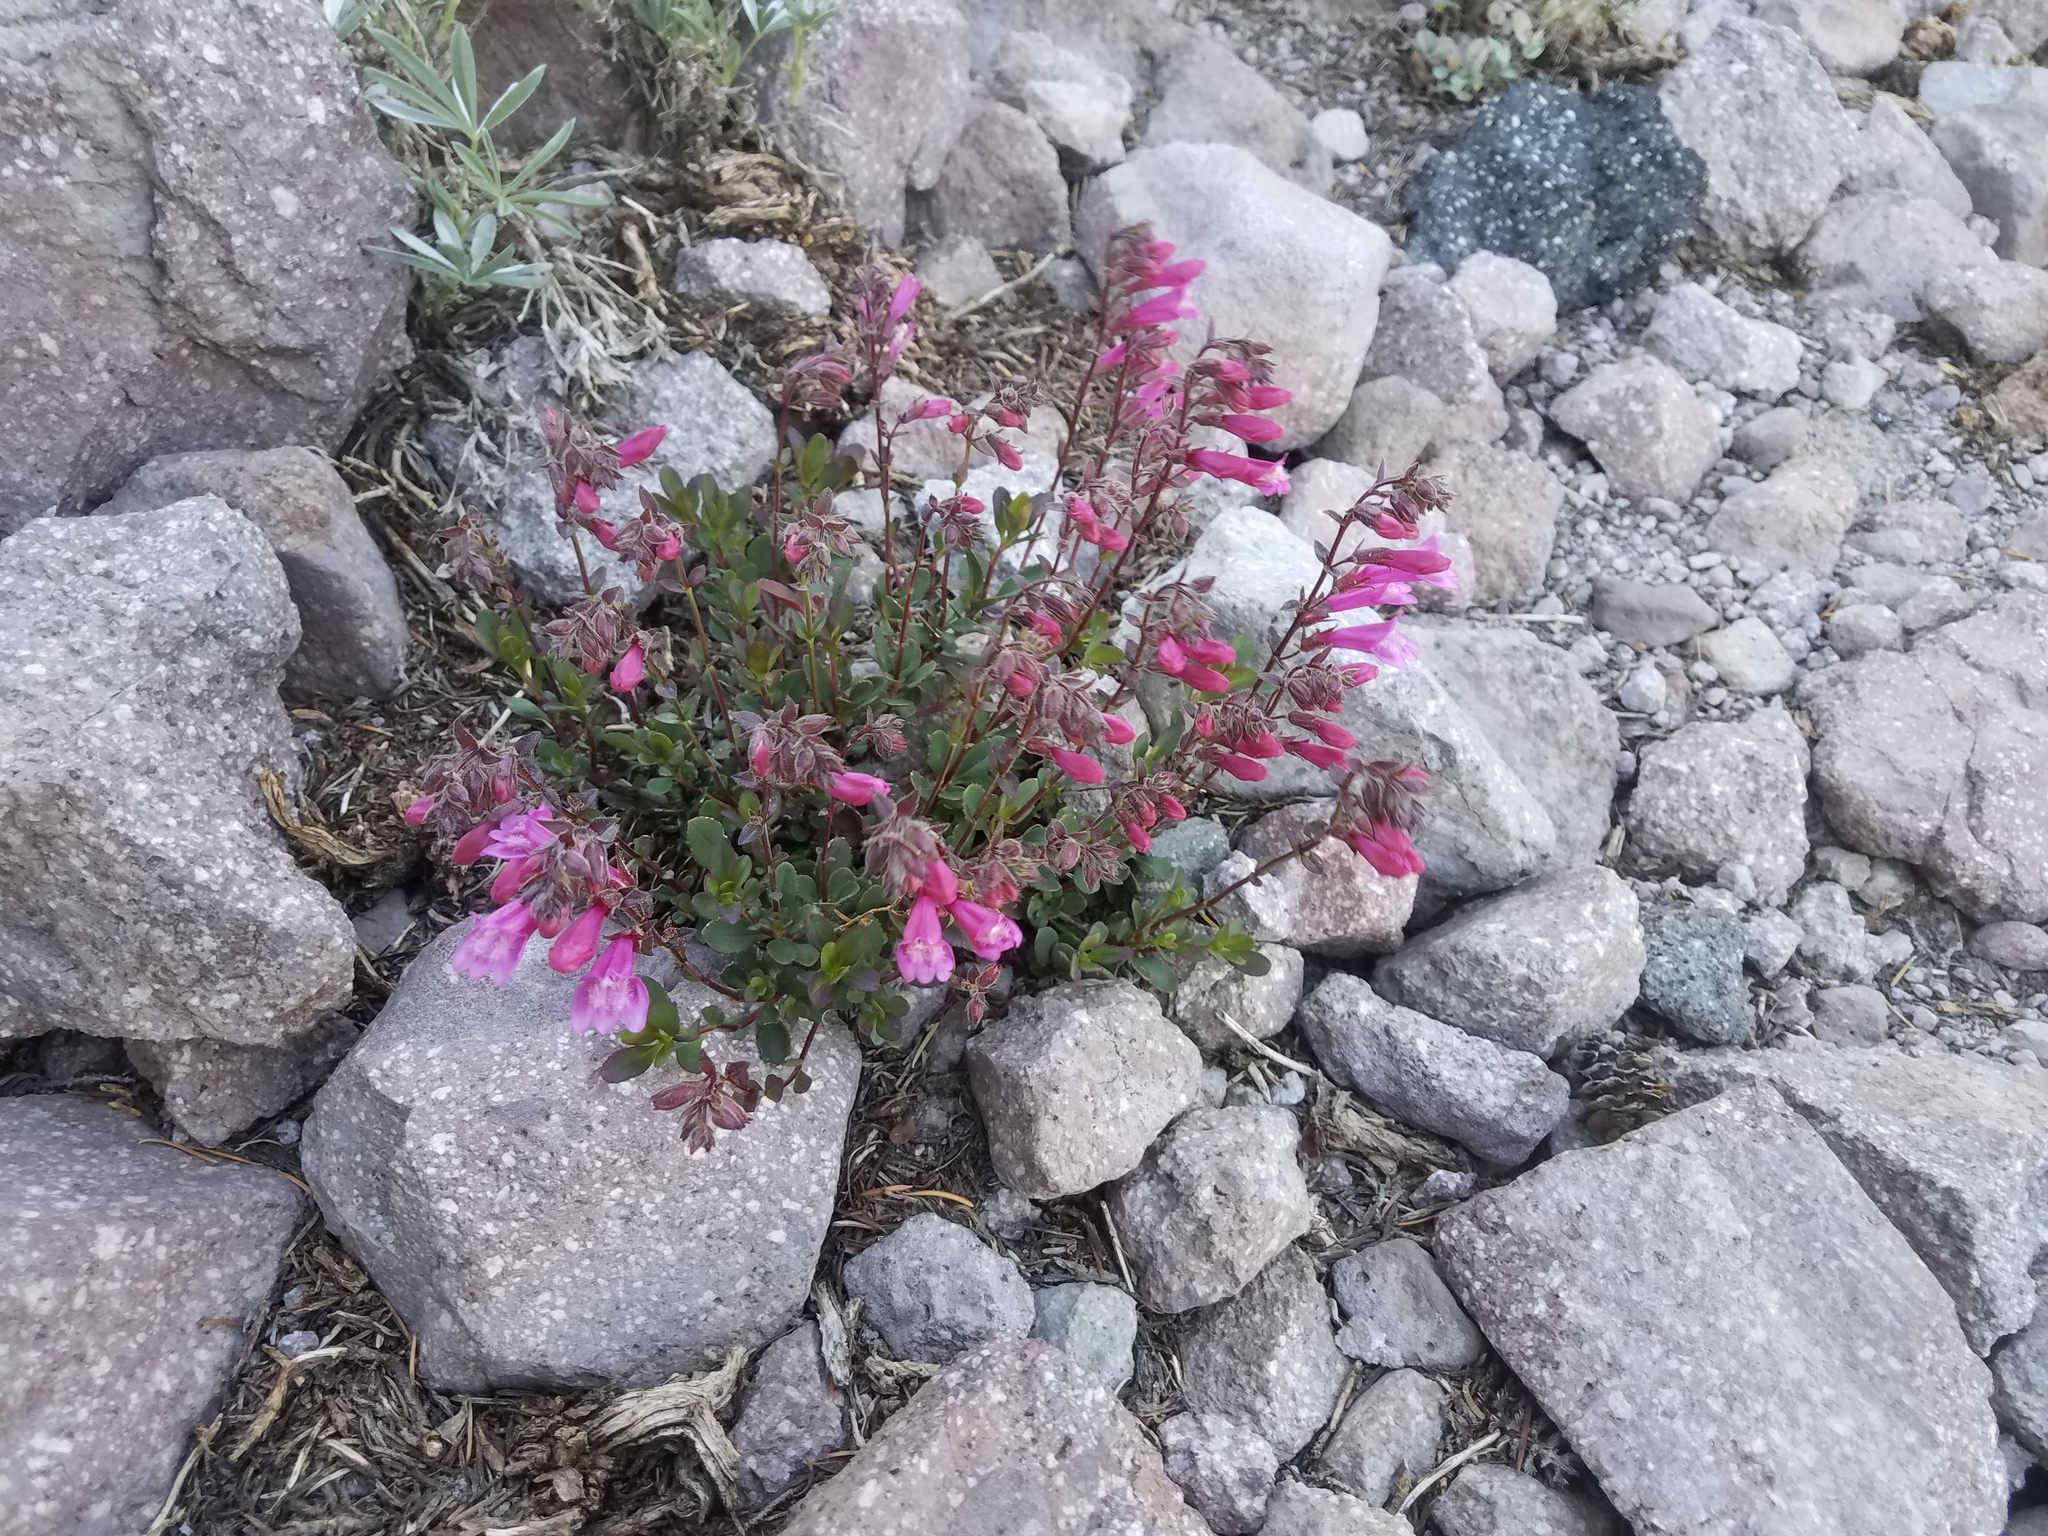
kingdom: Plantae
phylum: Tracheophyta
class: Magnoliopsida
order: Lamiales
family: Plantaginaceae
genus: Penstemon
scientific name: Penstemon newberryi
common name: Mountain-pride
